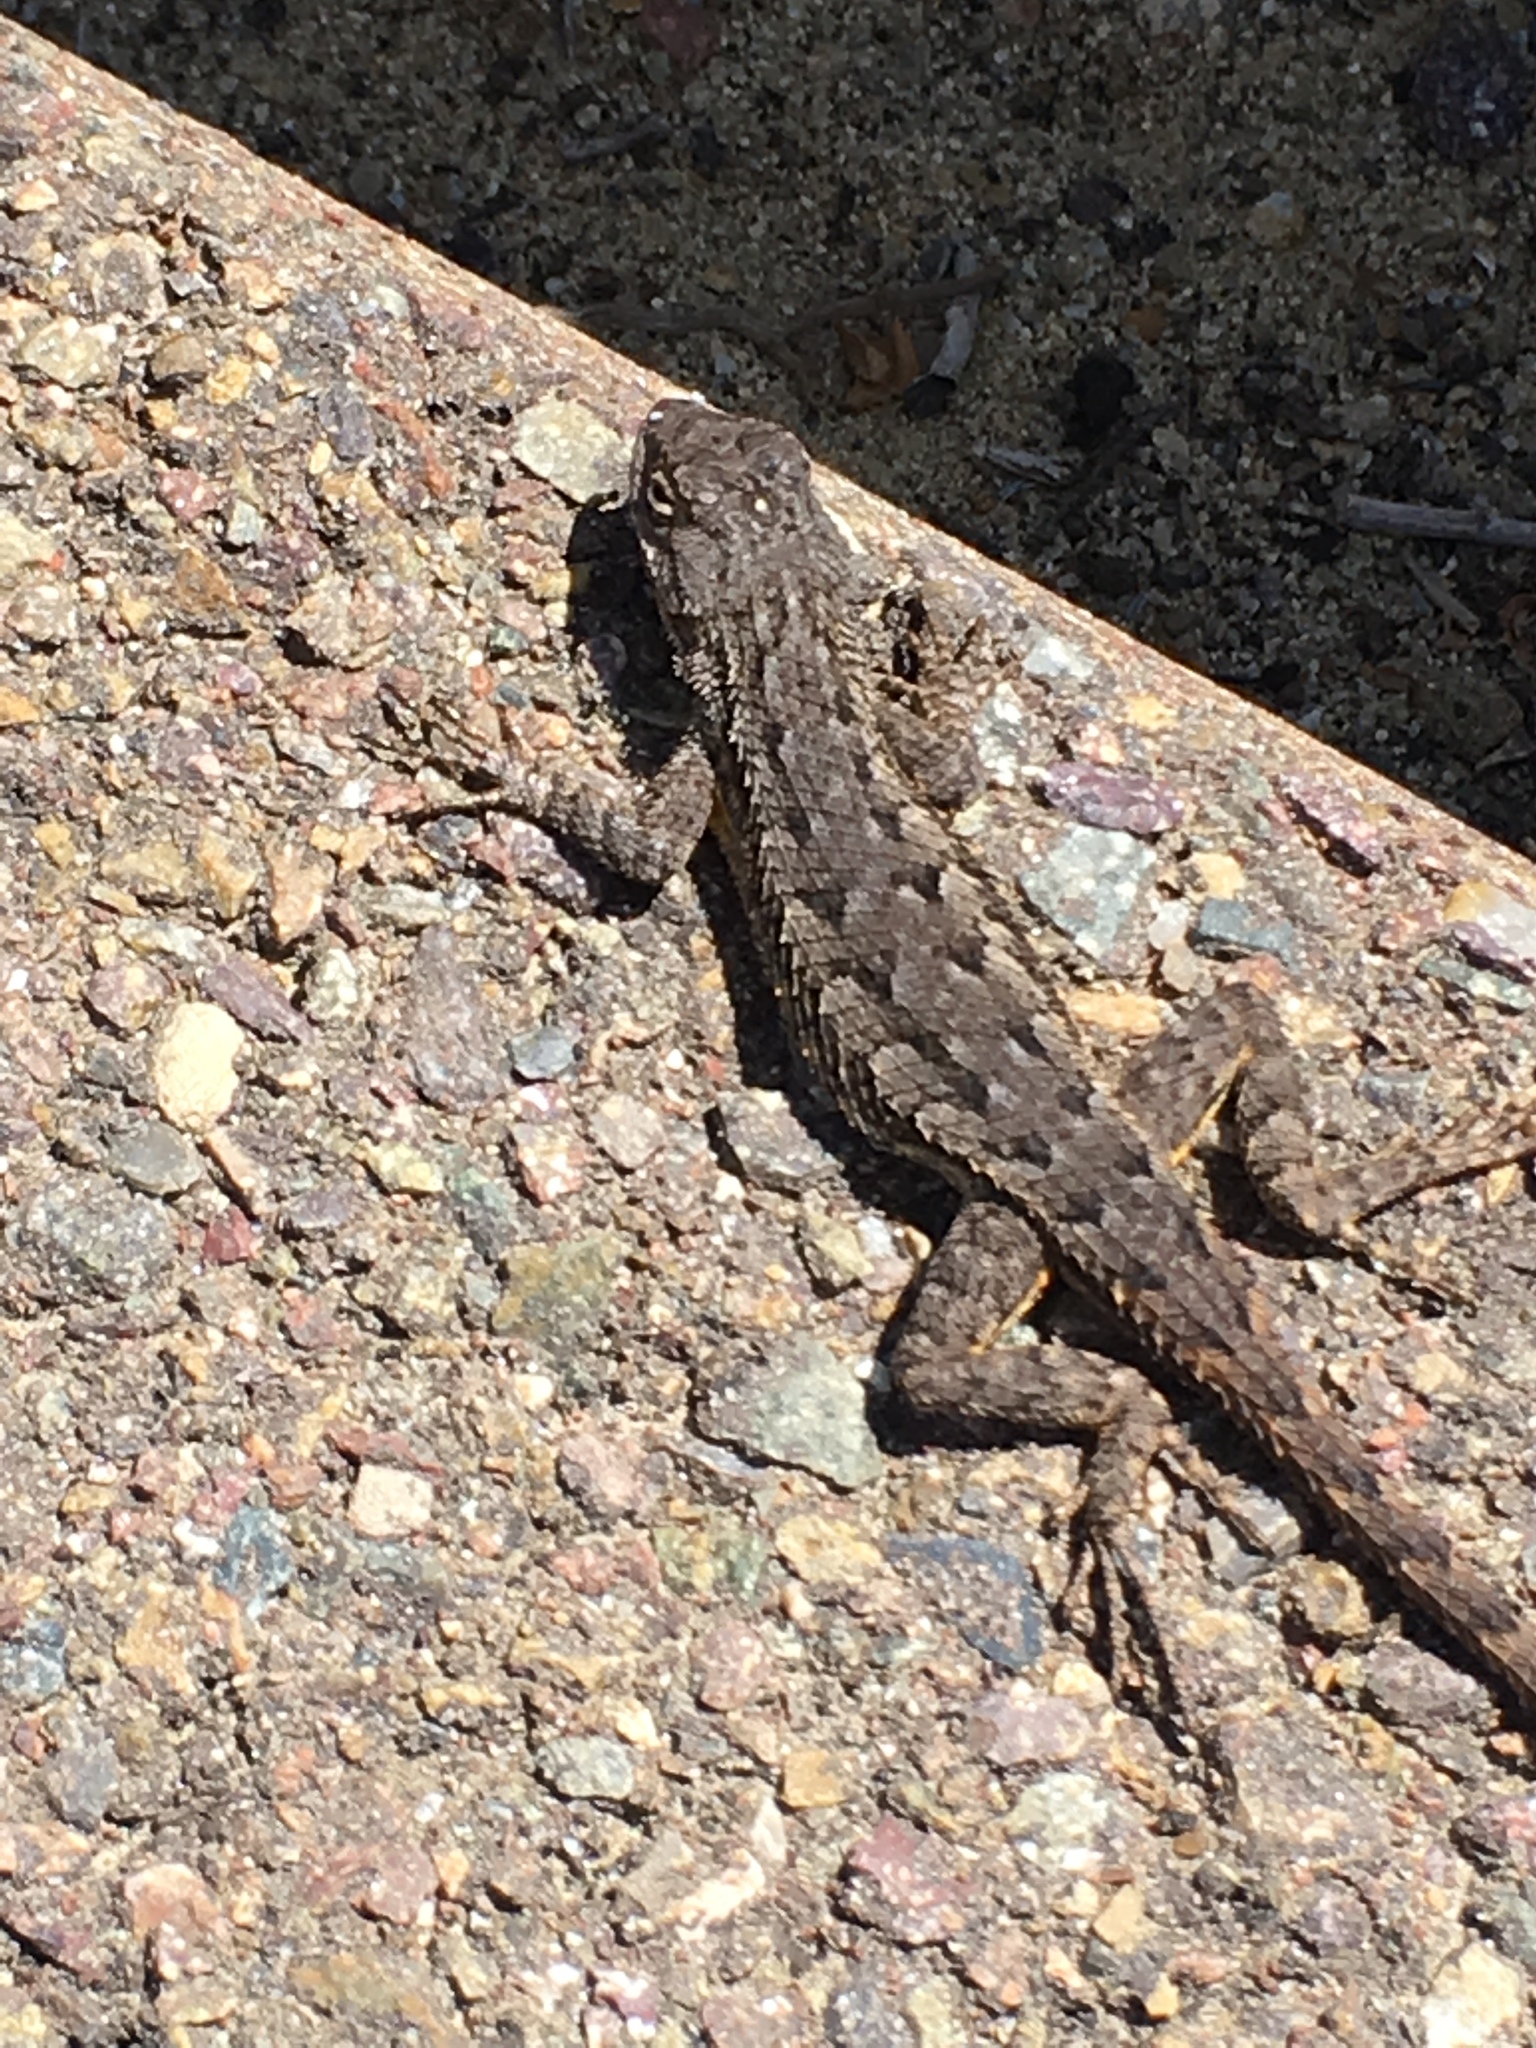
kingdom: Animalia
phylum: Chordata
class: Squamata
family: Phrynosomatidae
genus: Sceloporus
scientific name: Sceloporus occidentalis
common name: Western fence lizard
